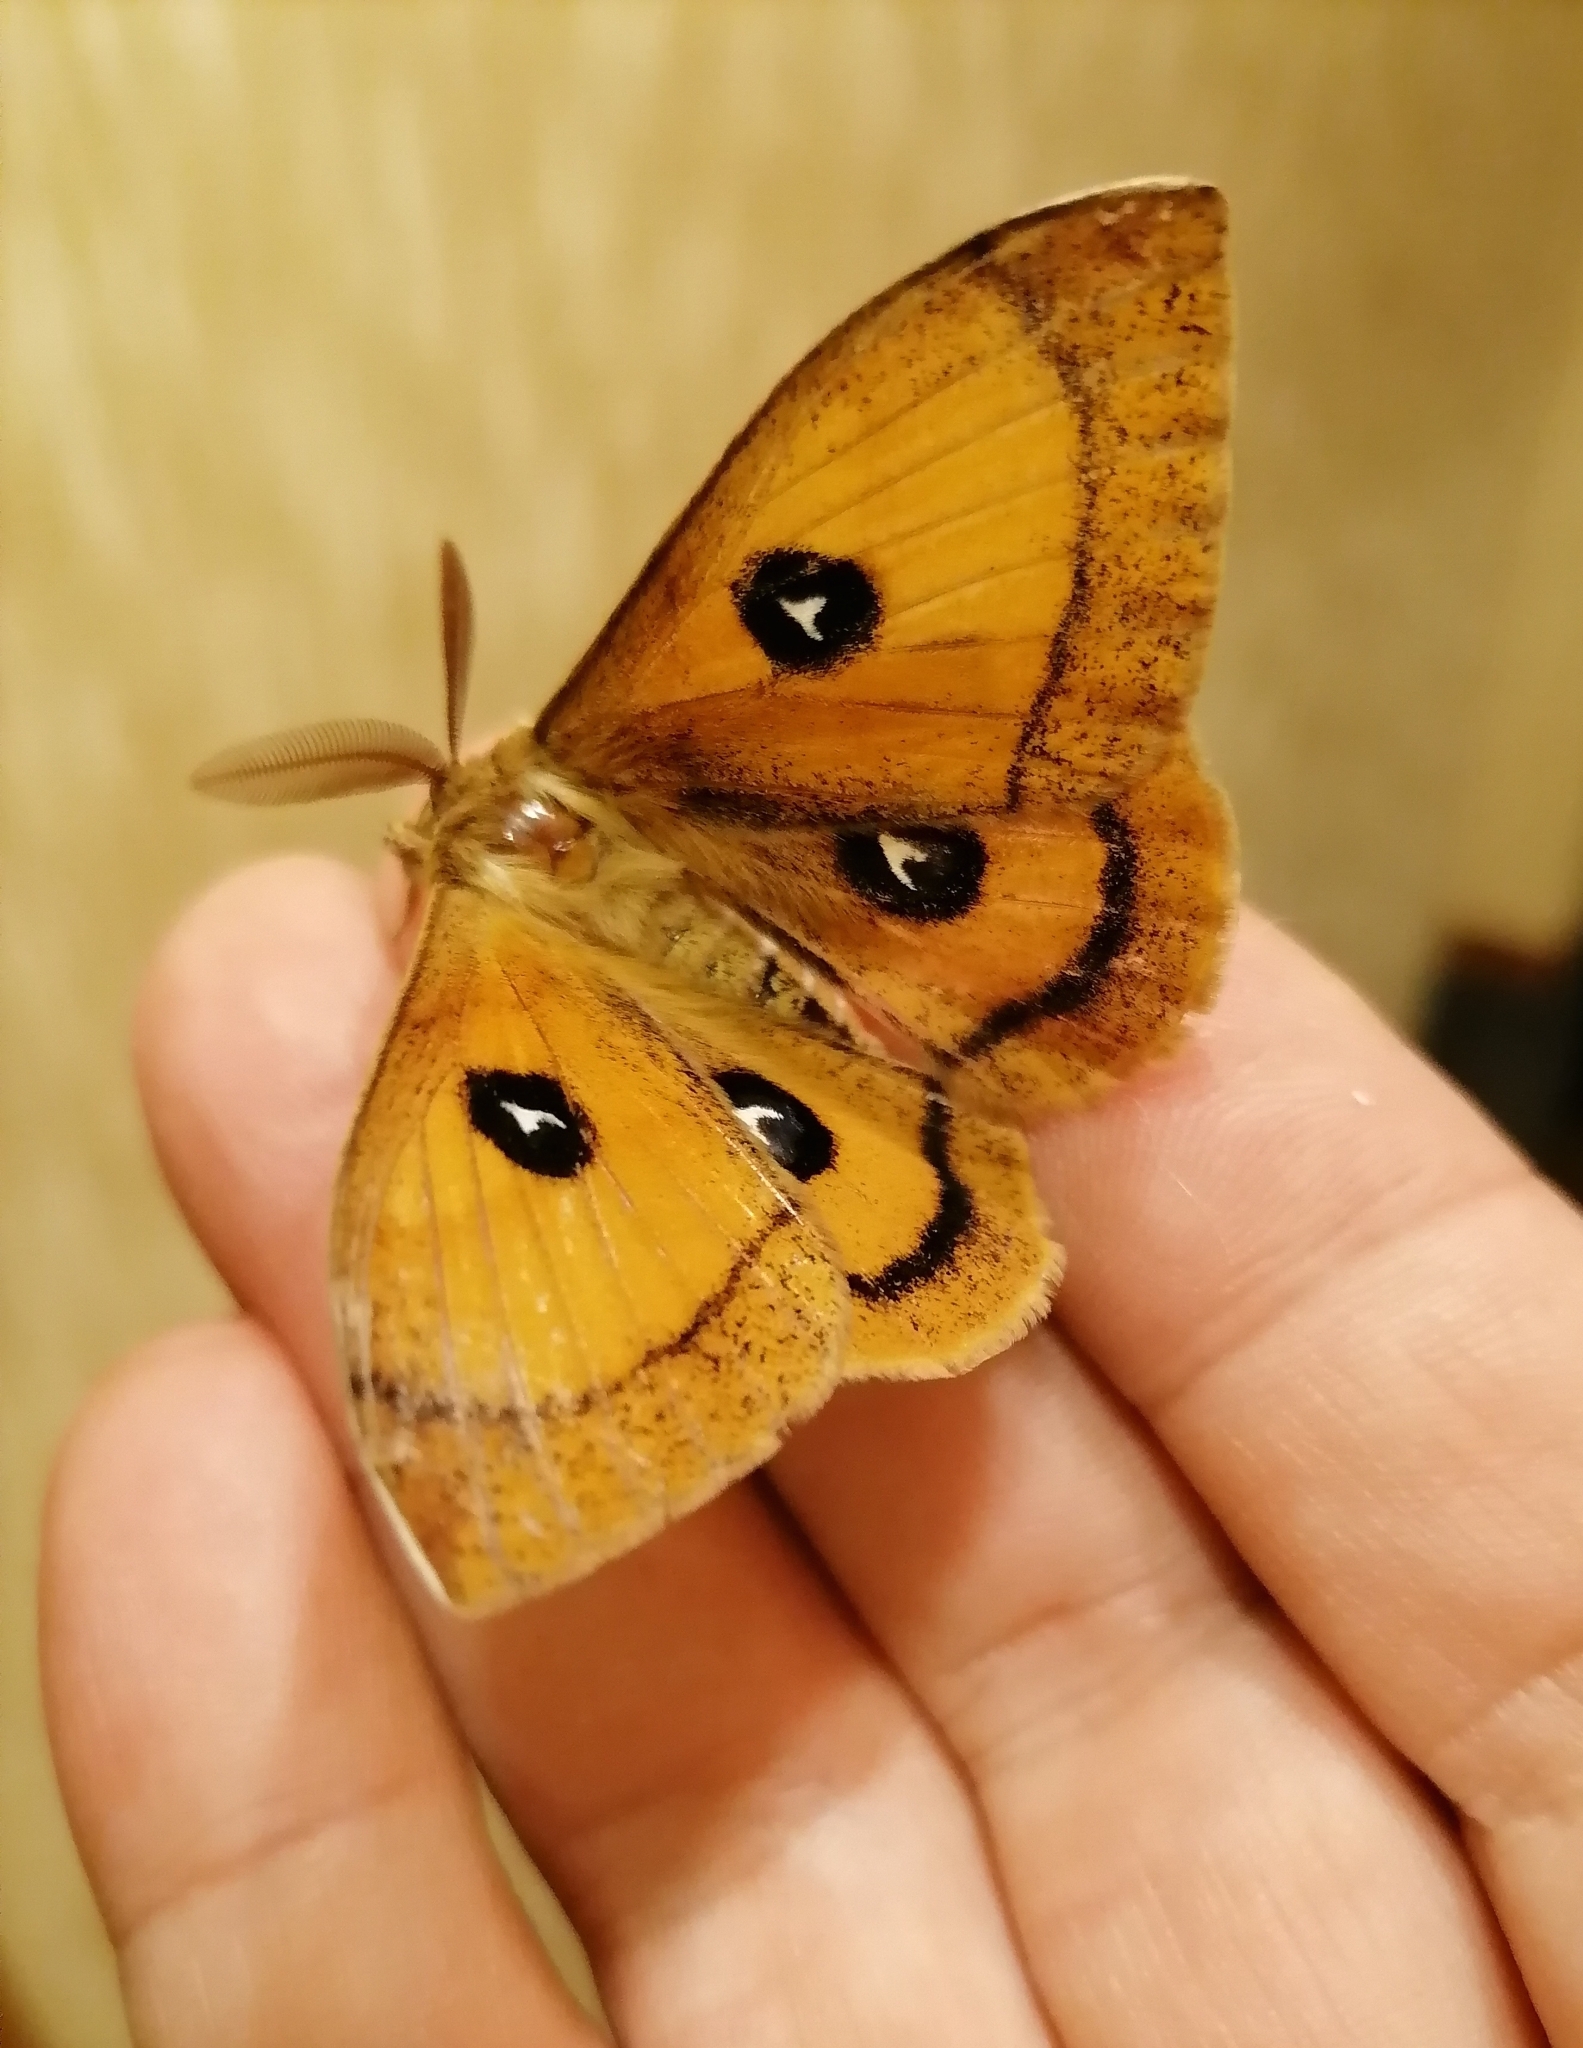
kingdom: Animalia
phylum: Arthropoda
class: Insecta
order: Lepidoptera
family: Saturniidae
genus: Aglia
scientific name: Aglia tau
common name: Tau emperor
